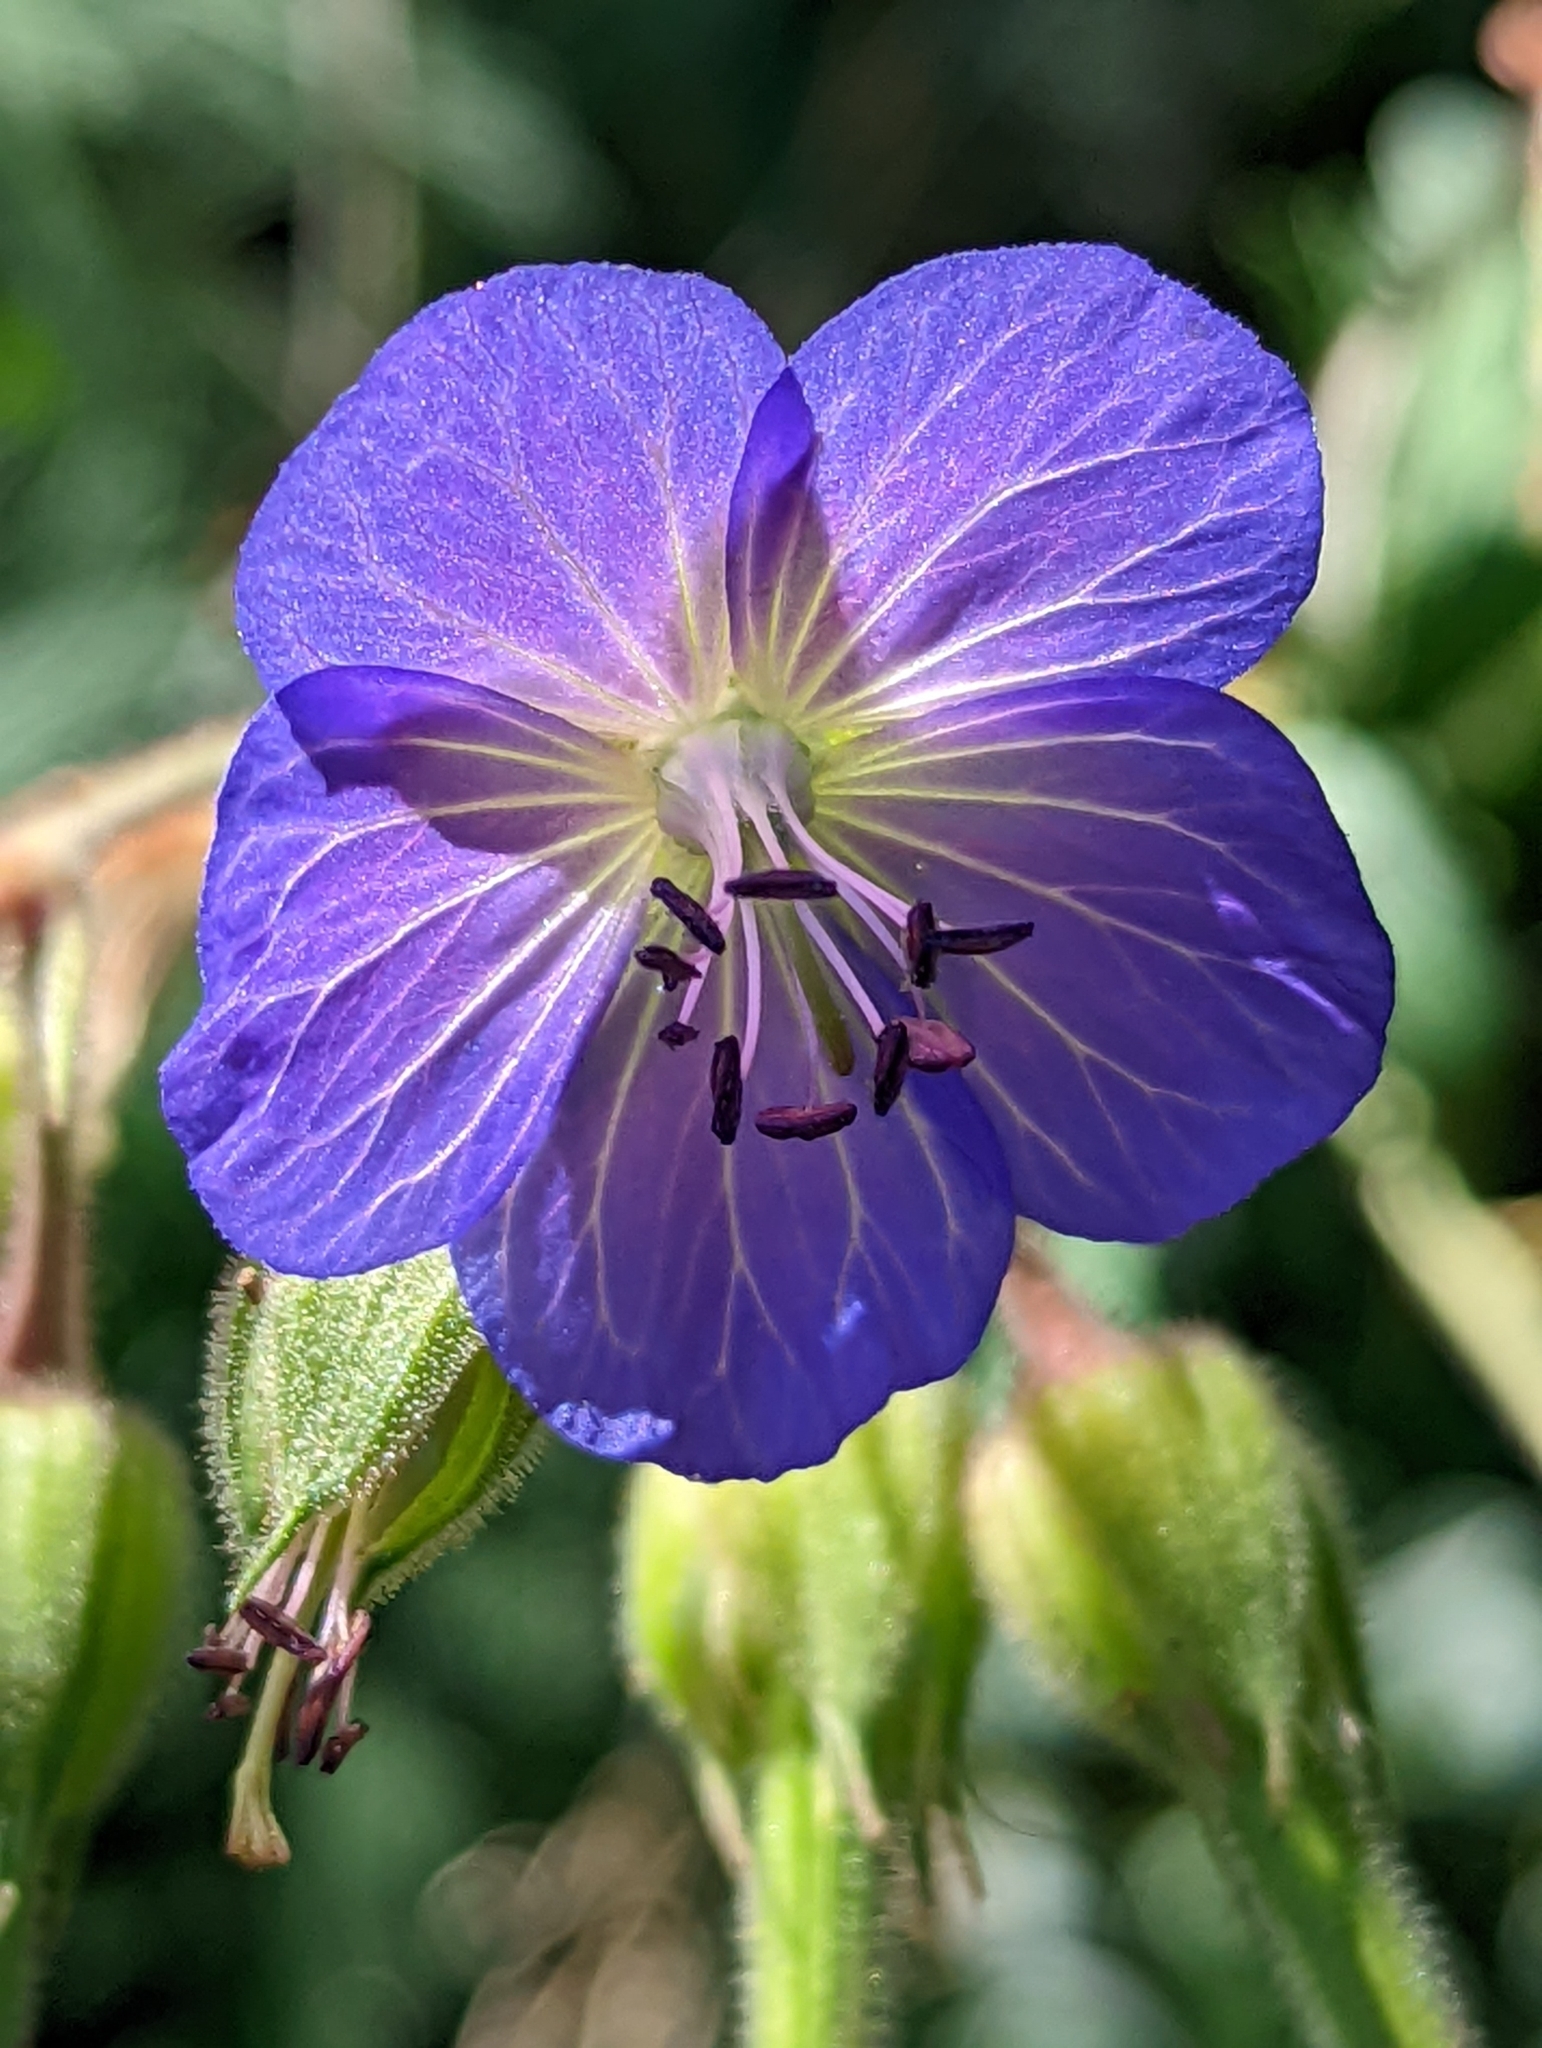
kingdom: Plantae
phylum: Tracheophyta
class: Magnoliopsida
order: Geraniales
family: Geraniaceae
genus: Geranium
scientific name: Geranium pratense
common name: Meadow crane's-bill
